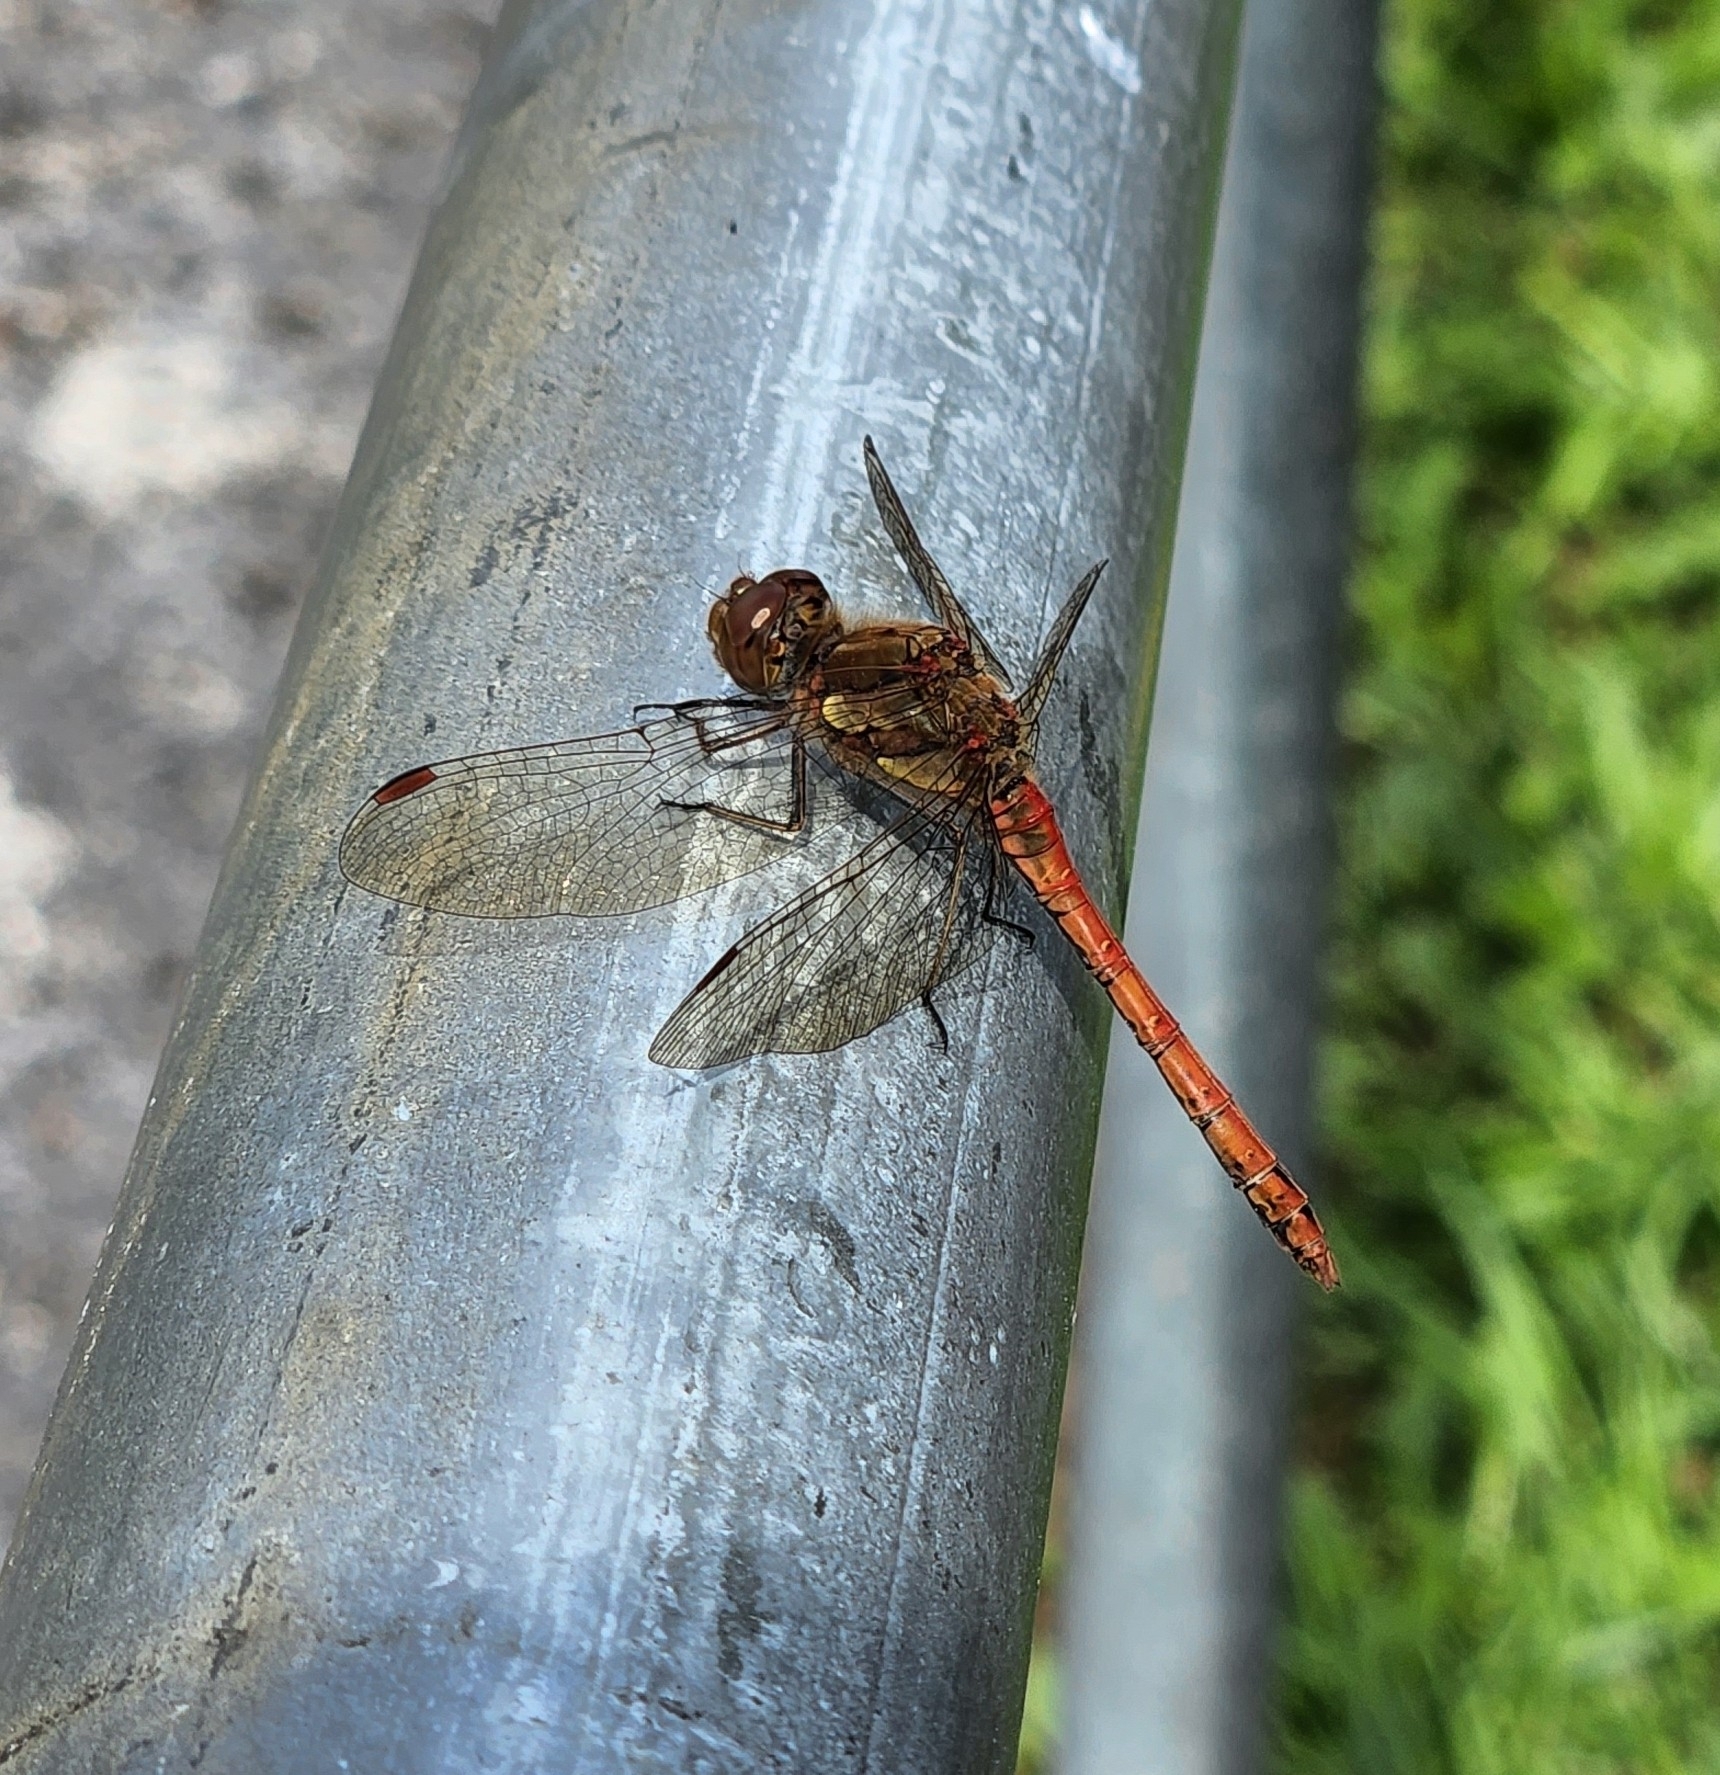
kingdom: Animalia
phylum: Arthropoda
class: Insecta
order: Odonata
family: Libellulidae
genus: Sympetrum
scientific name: Sympetrum striolatum
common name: Common darter
